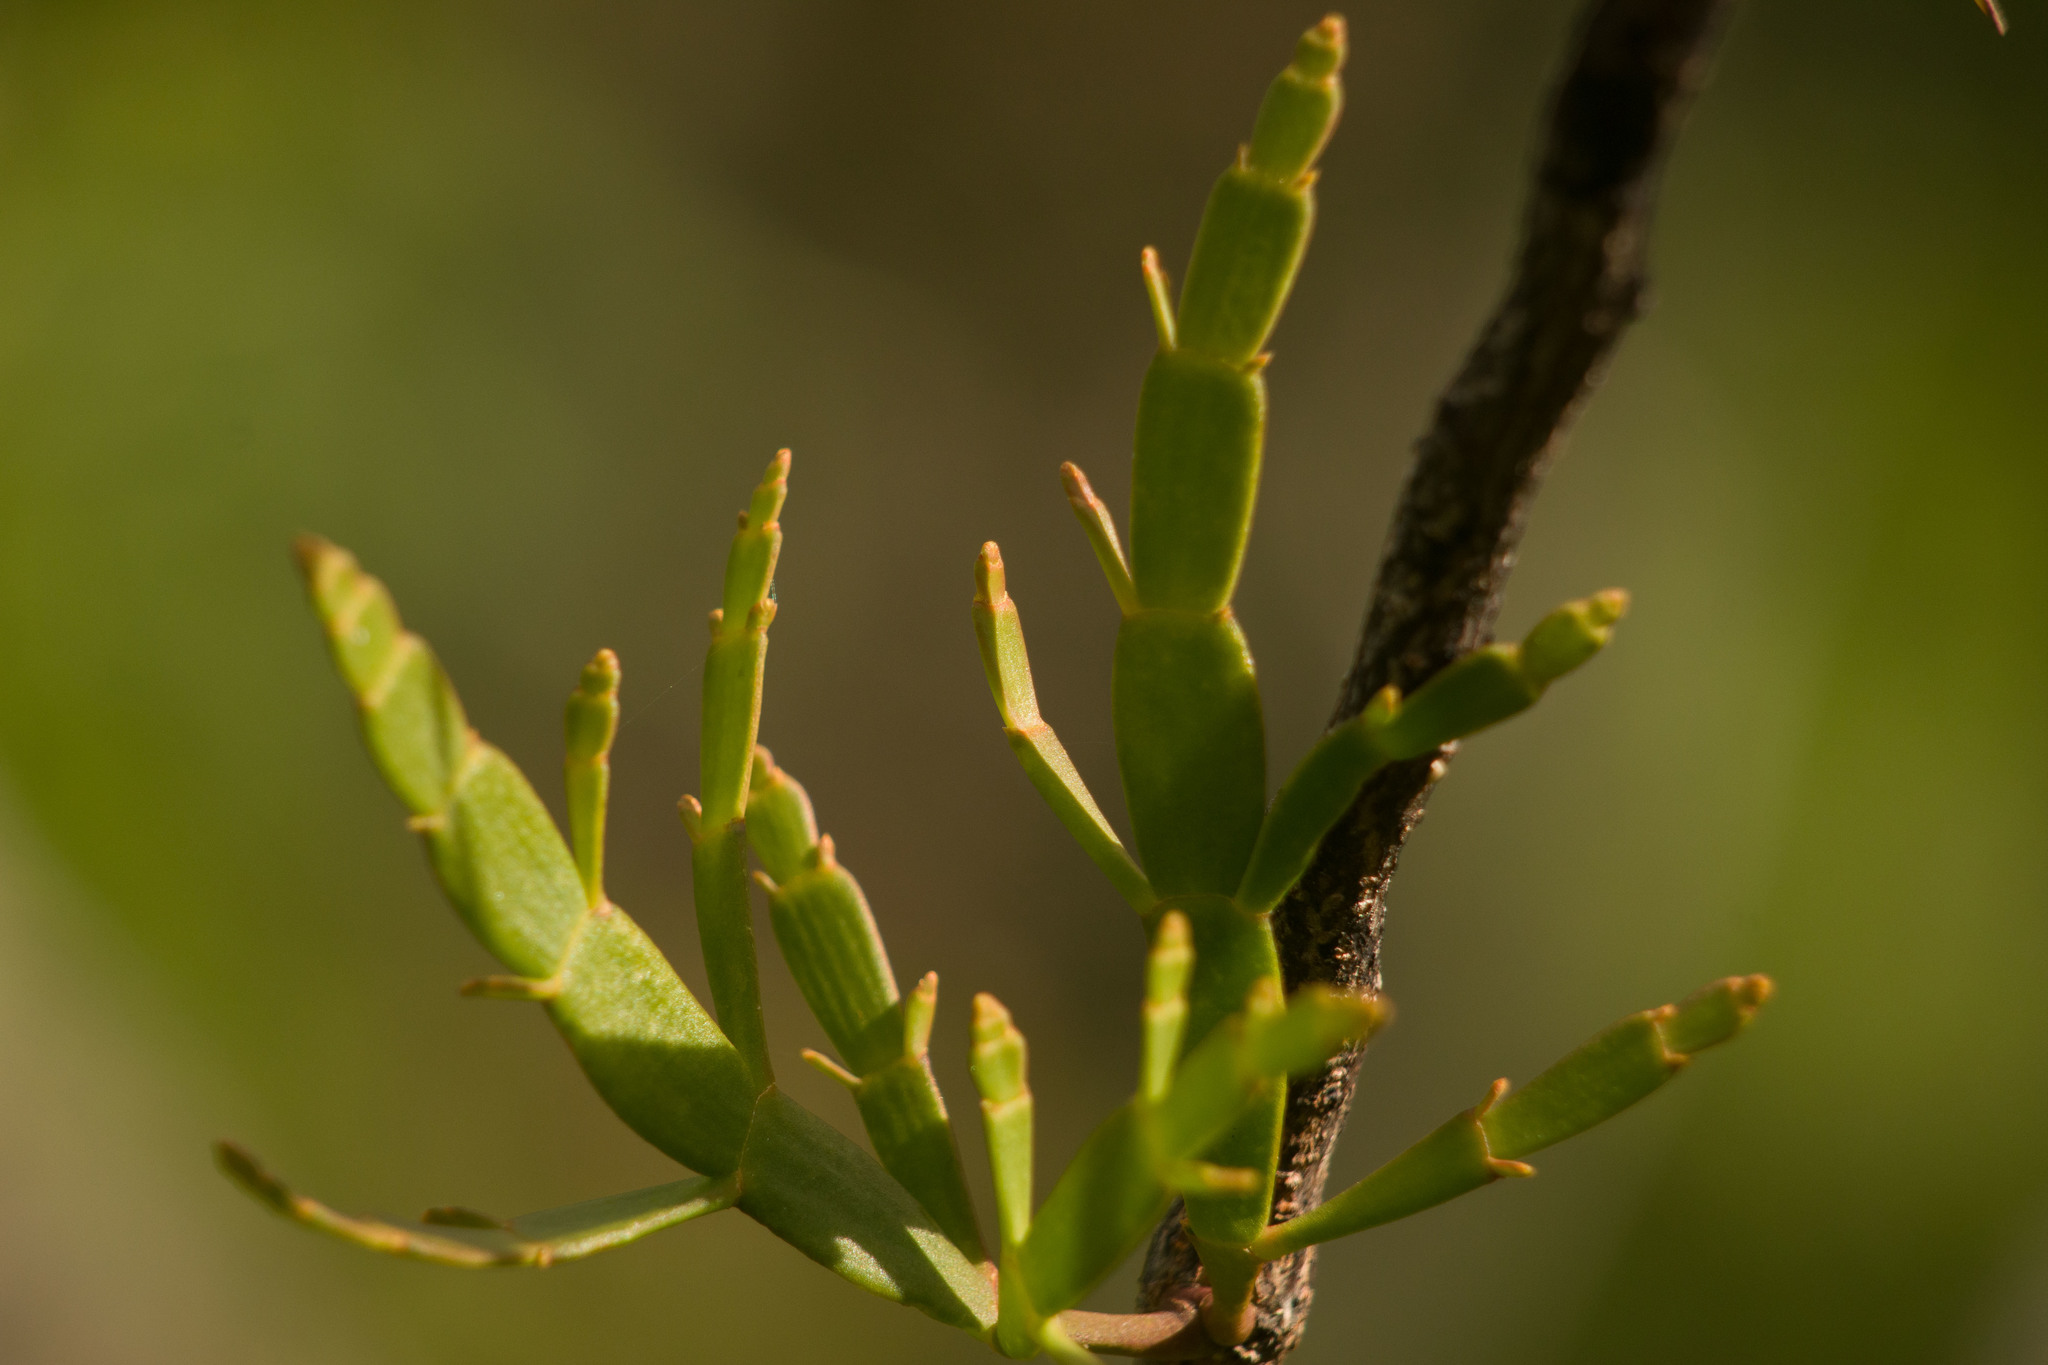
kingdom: Plantae
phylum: Tracheophyta
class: Magnoliopsida
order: Santalales
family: Viscaceae
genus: Korthalsella
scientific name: Korthalsella complanata
